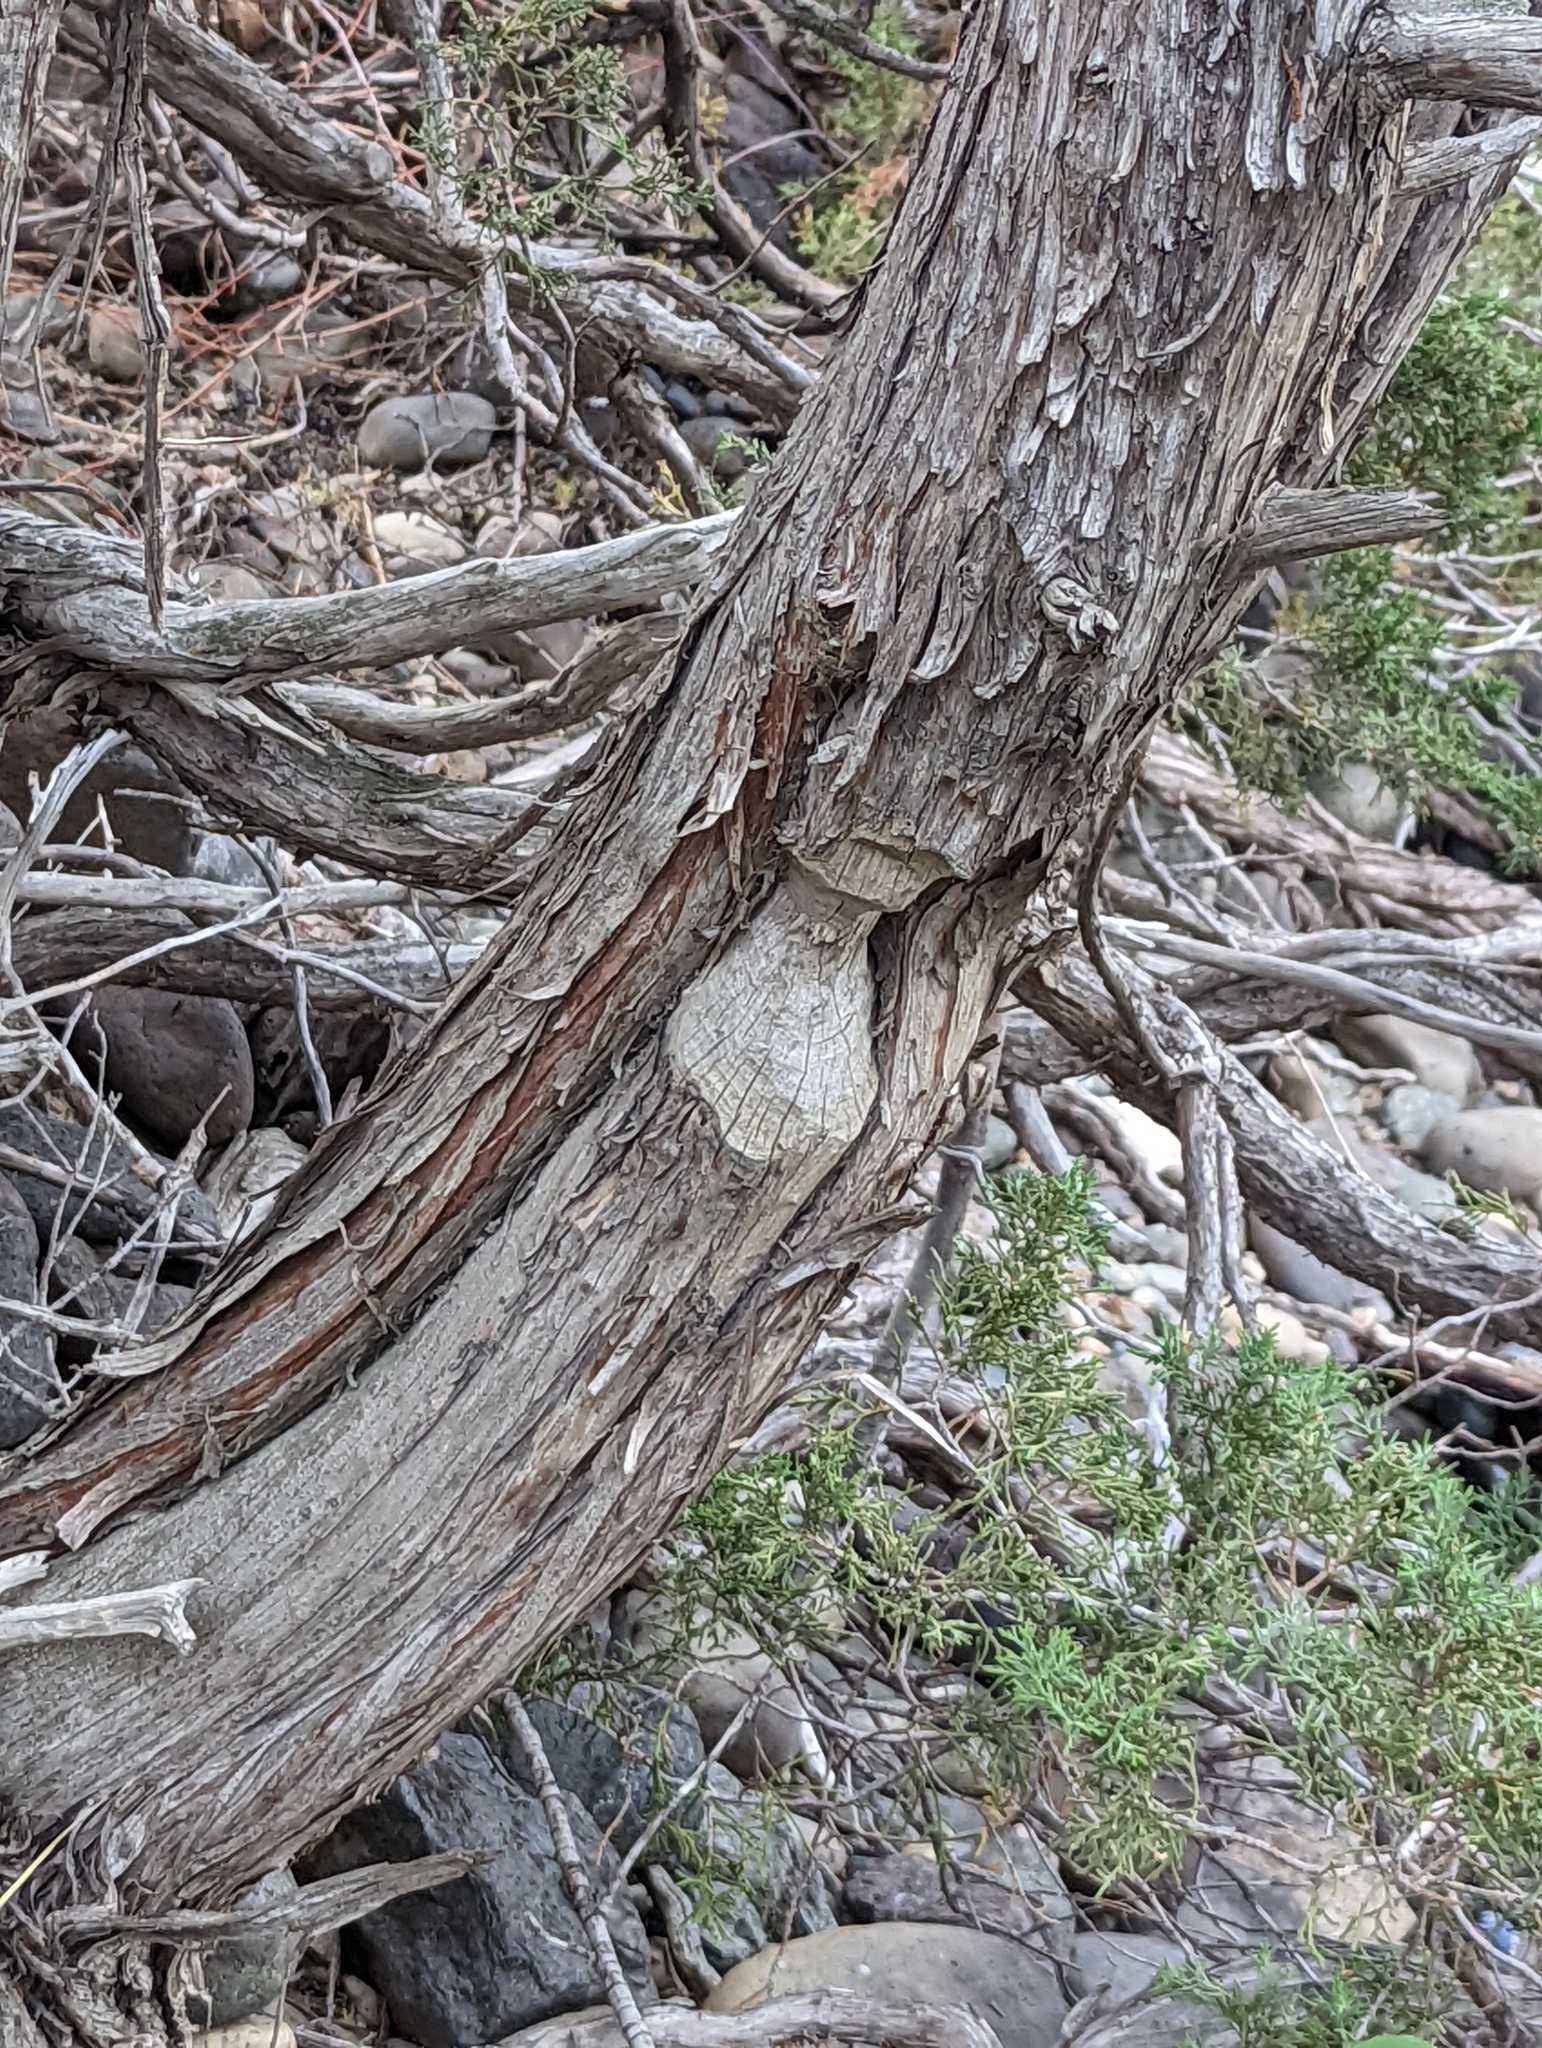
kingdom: Animalia
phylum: Chordata
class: Mammalia
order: Rodentia
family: Castoridae
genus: Castor
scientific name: Castor canadensis
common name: American beaver
